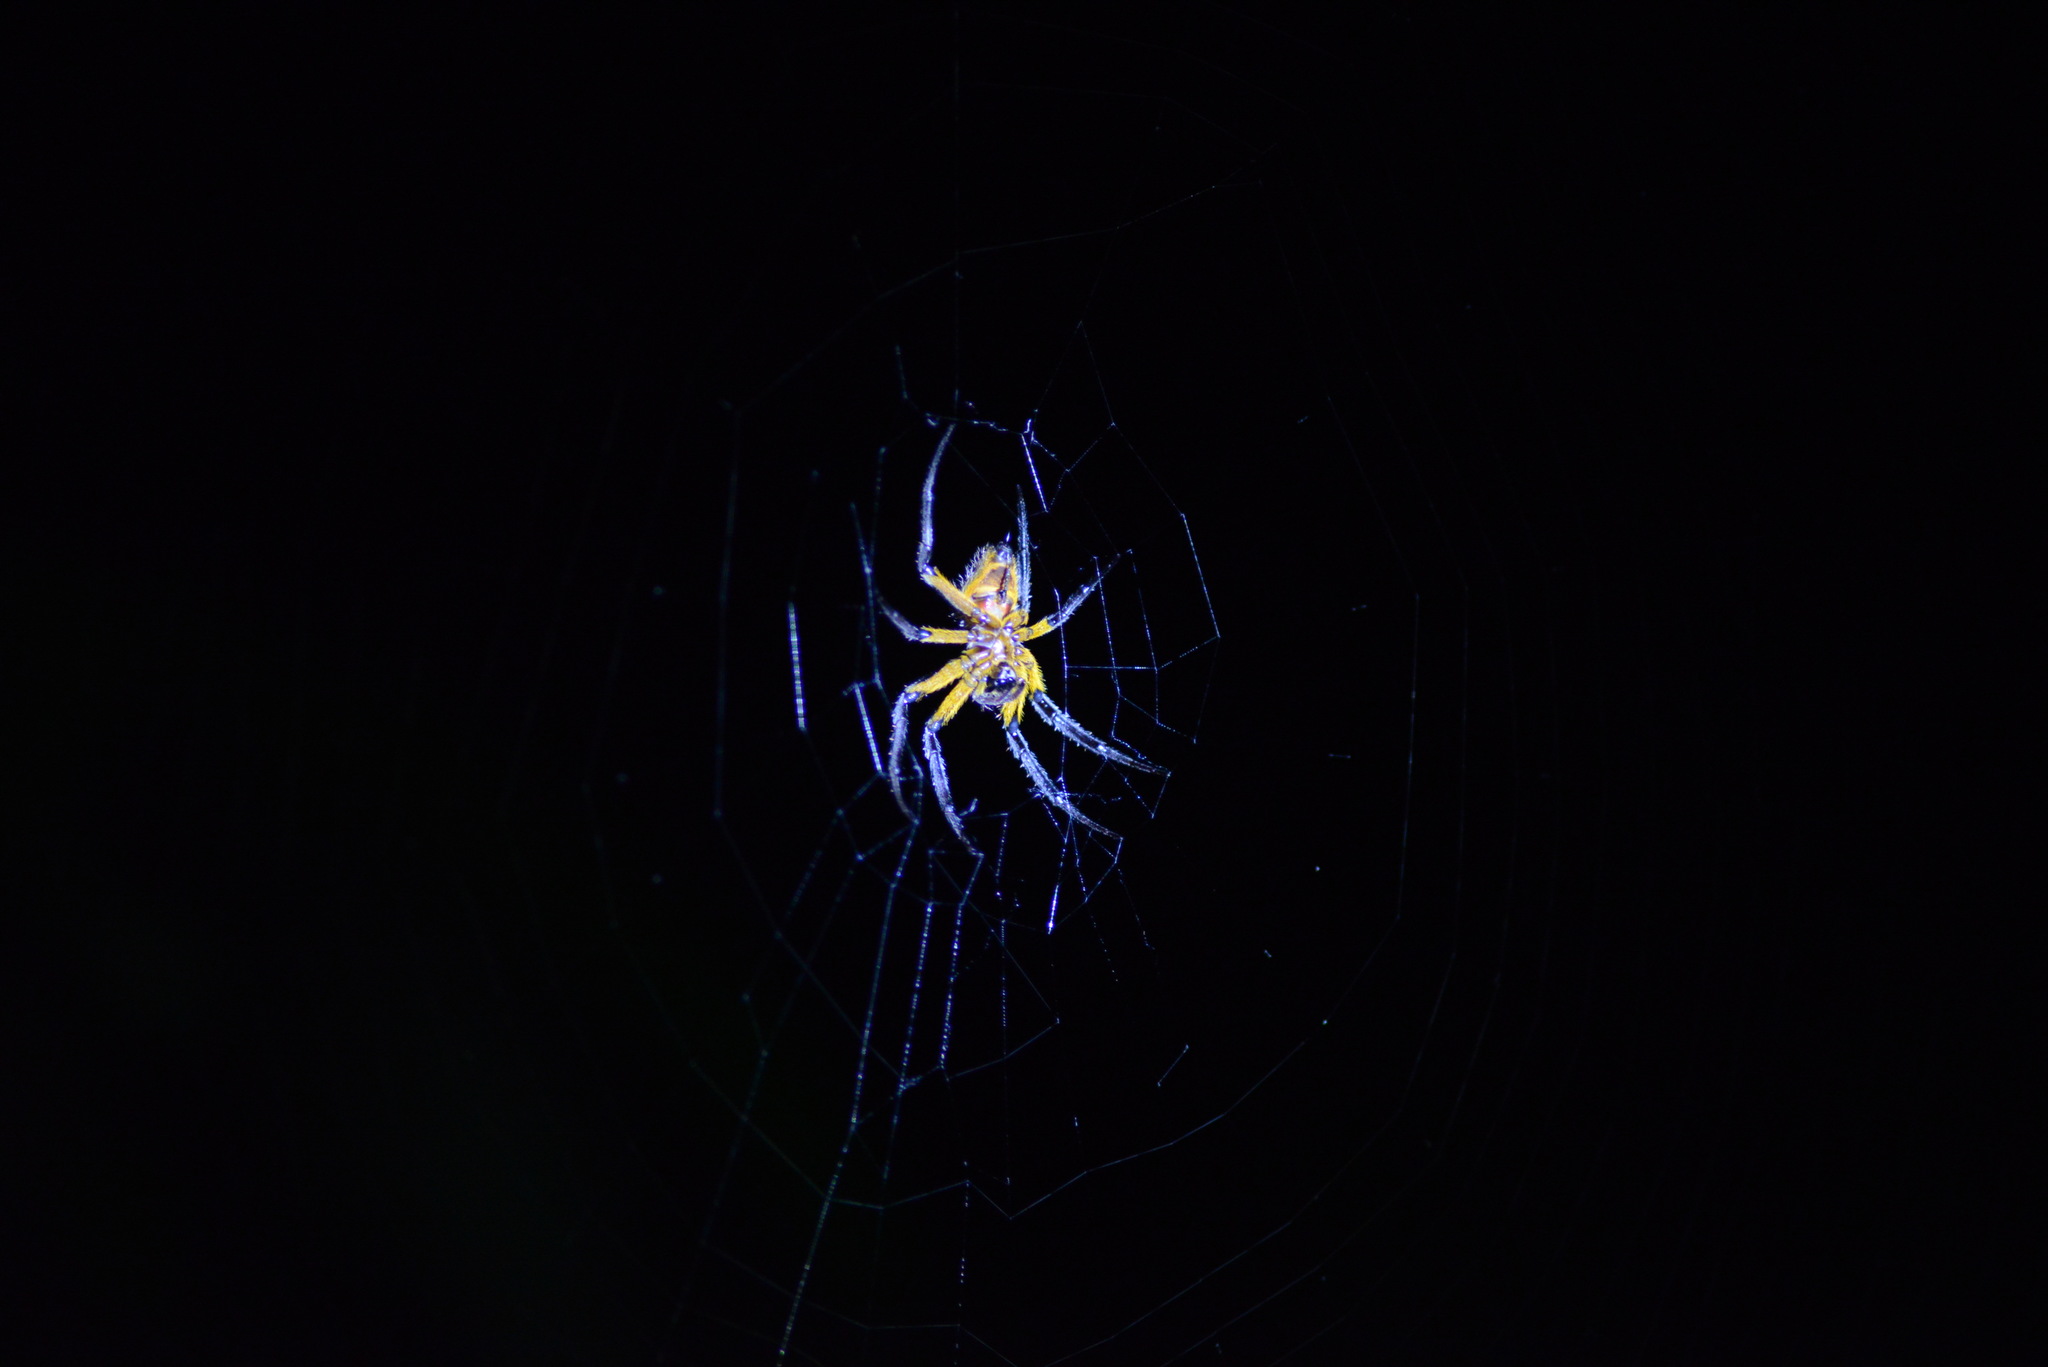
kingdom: Animalia
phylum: Arthropoda
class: Arachnida
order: Araneae
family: Araneidae
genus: Eriophora
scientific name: Eriophora fuliginea
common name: Orb weavers
